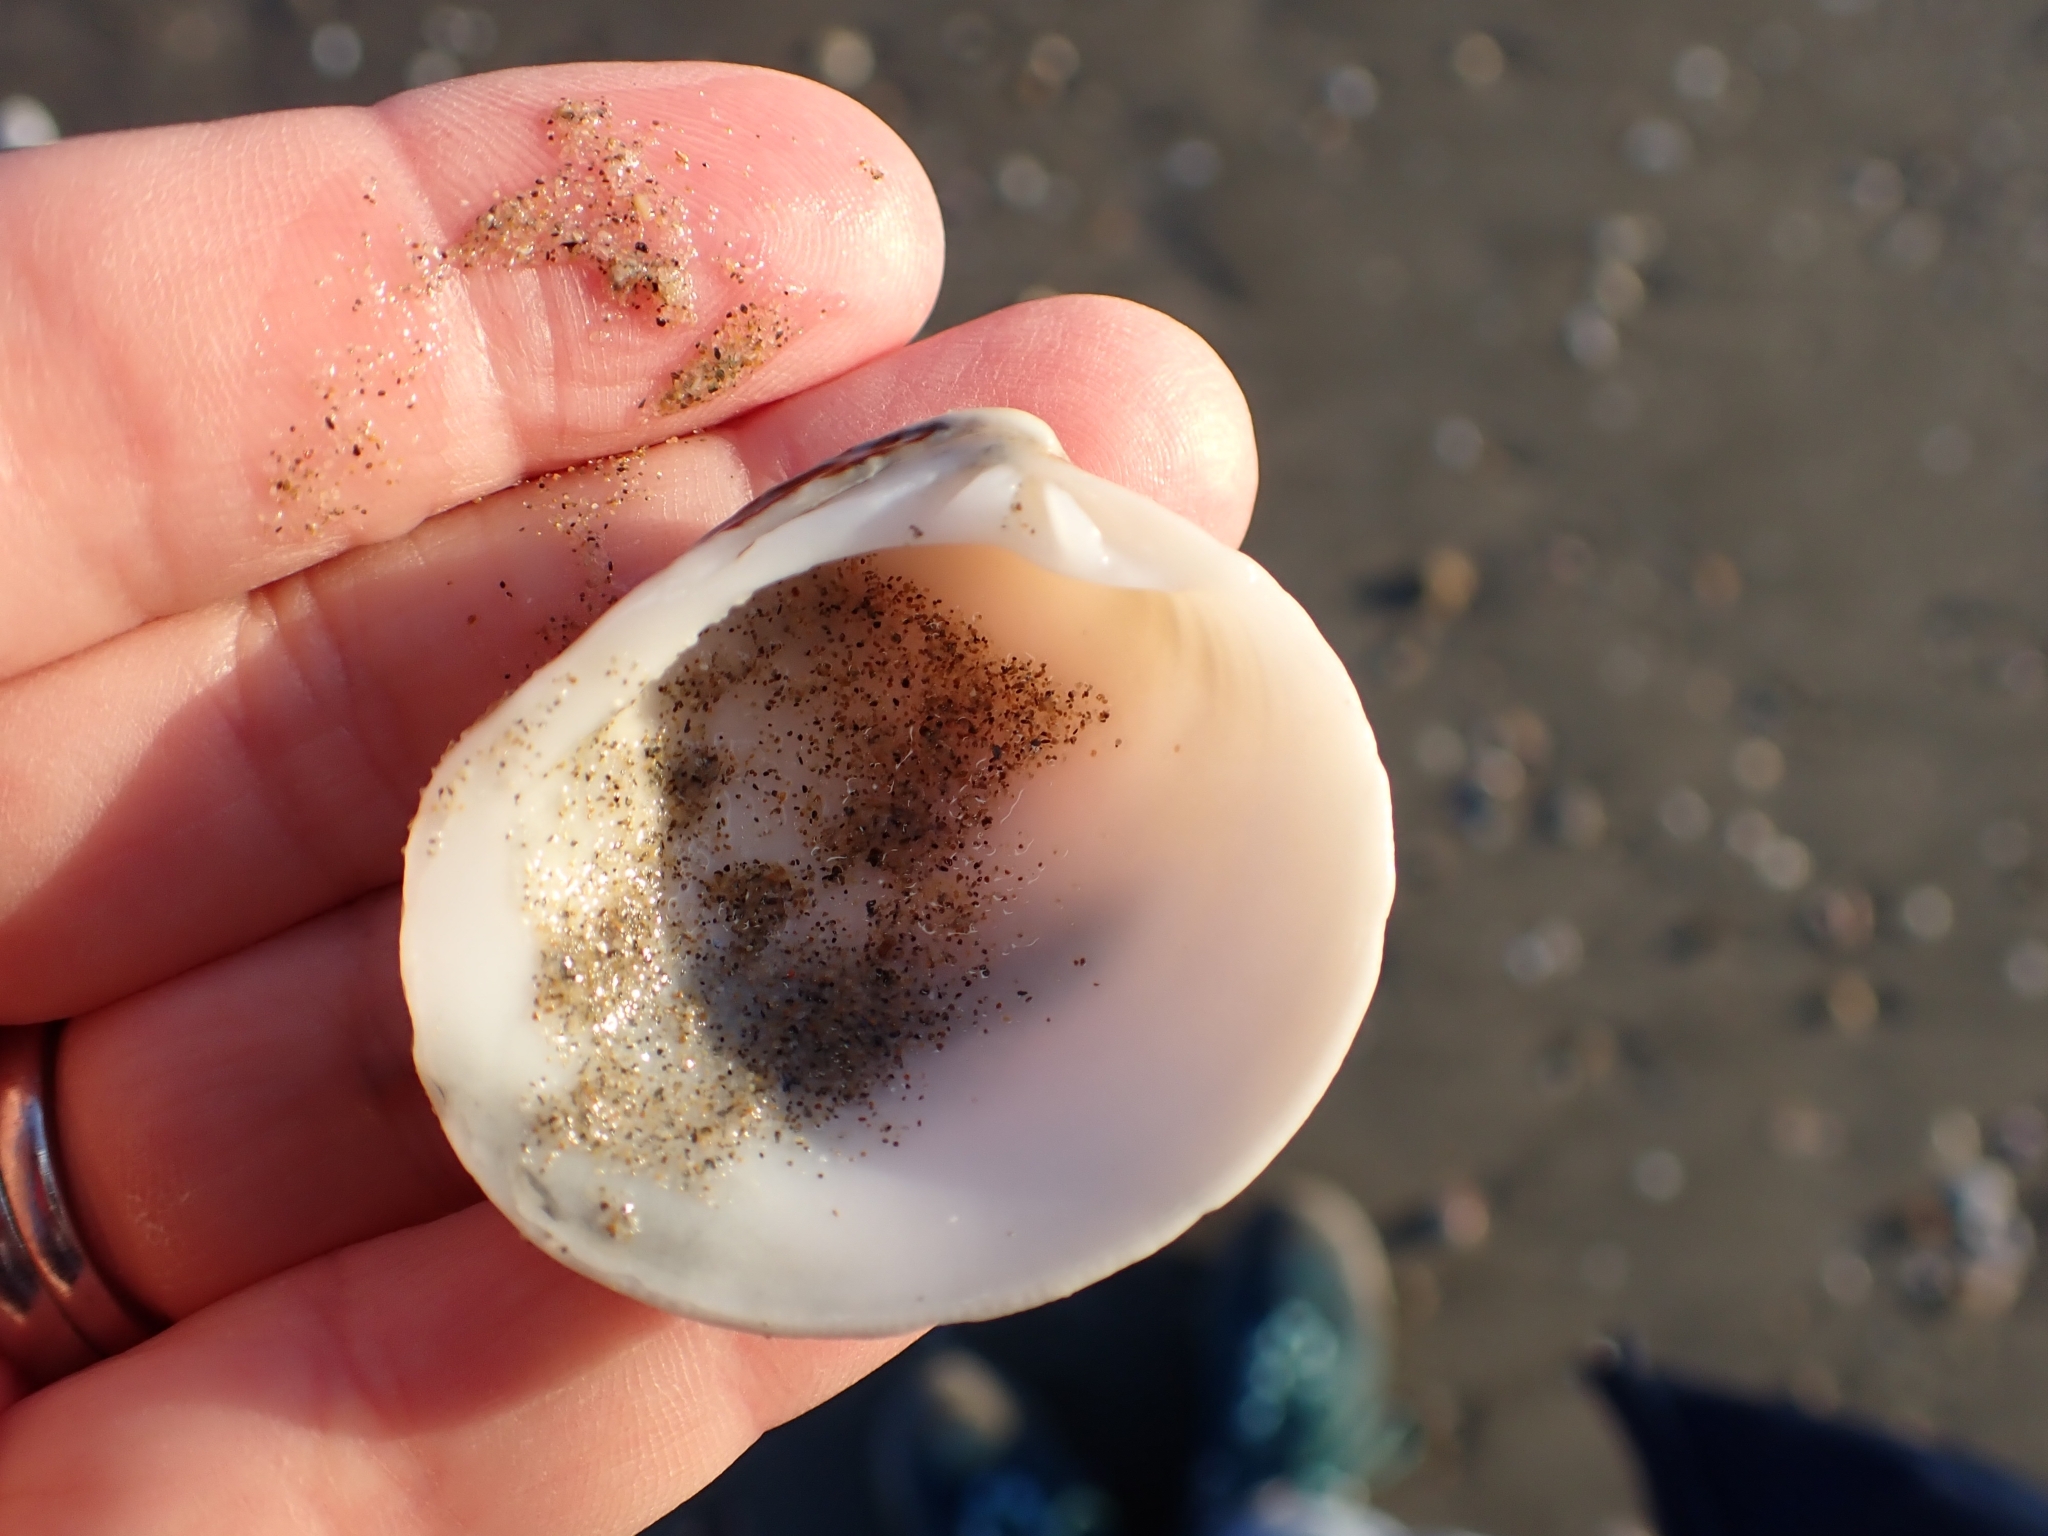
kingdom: Animalia
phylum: Mollusca
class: Bivalvia
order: Venerida
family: Veneridae
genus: Venus
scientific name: Venus verrucosa
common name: Warty venus
